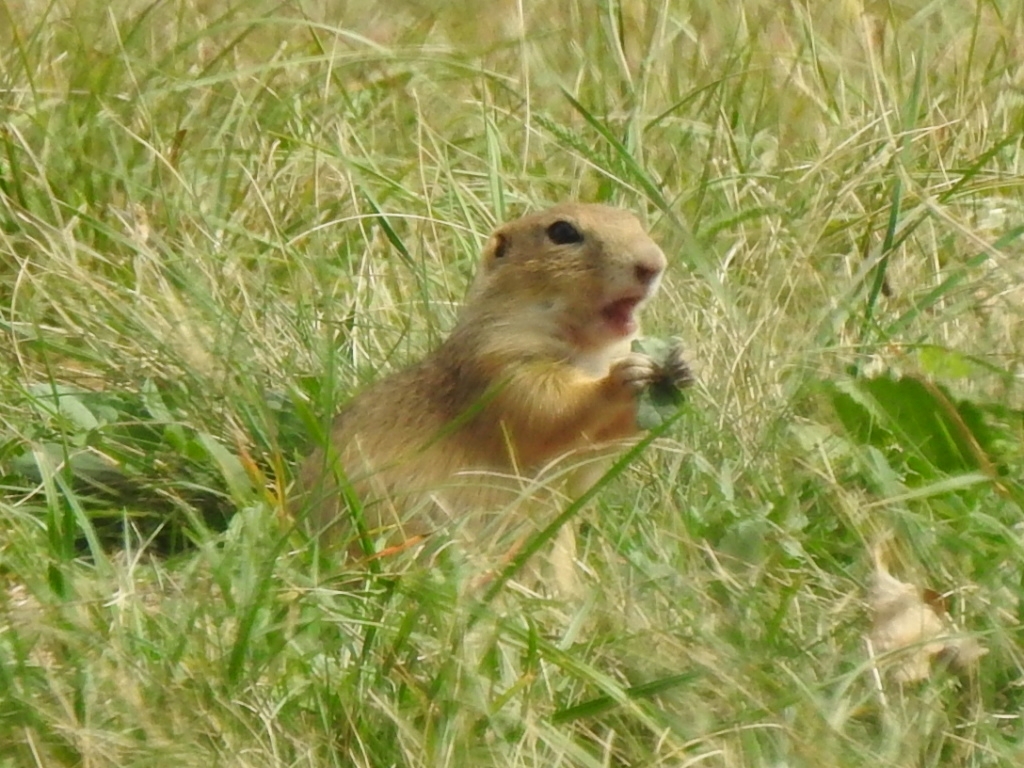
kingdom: Animalia
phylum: Chordata
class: Mammalia
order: Rodentia
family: Sciuridae
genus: Spermophilus
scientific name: Spermophilus citellus
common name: European ground squirrel
